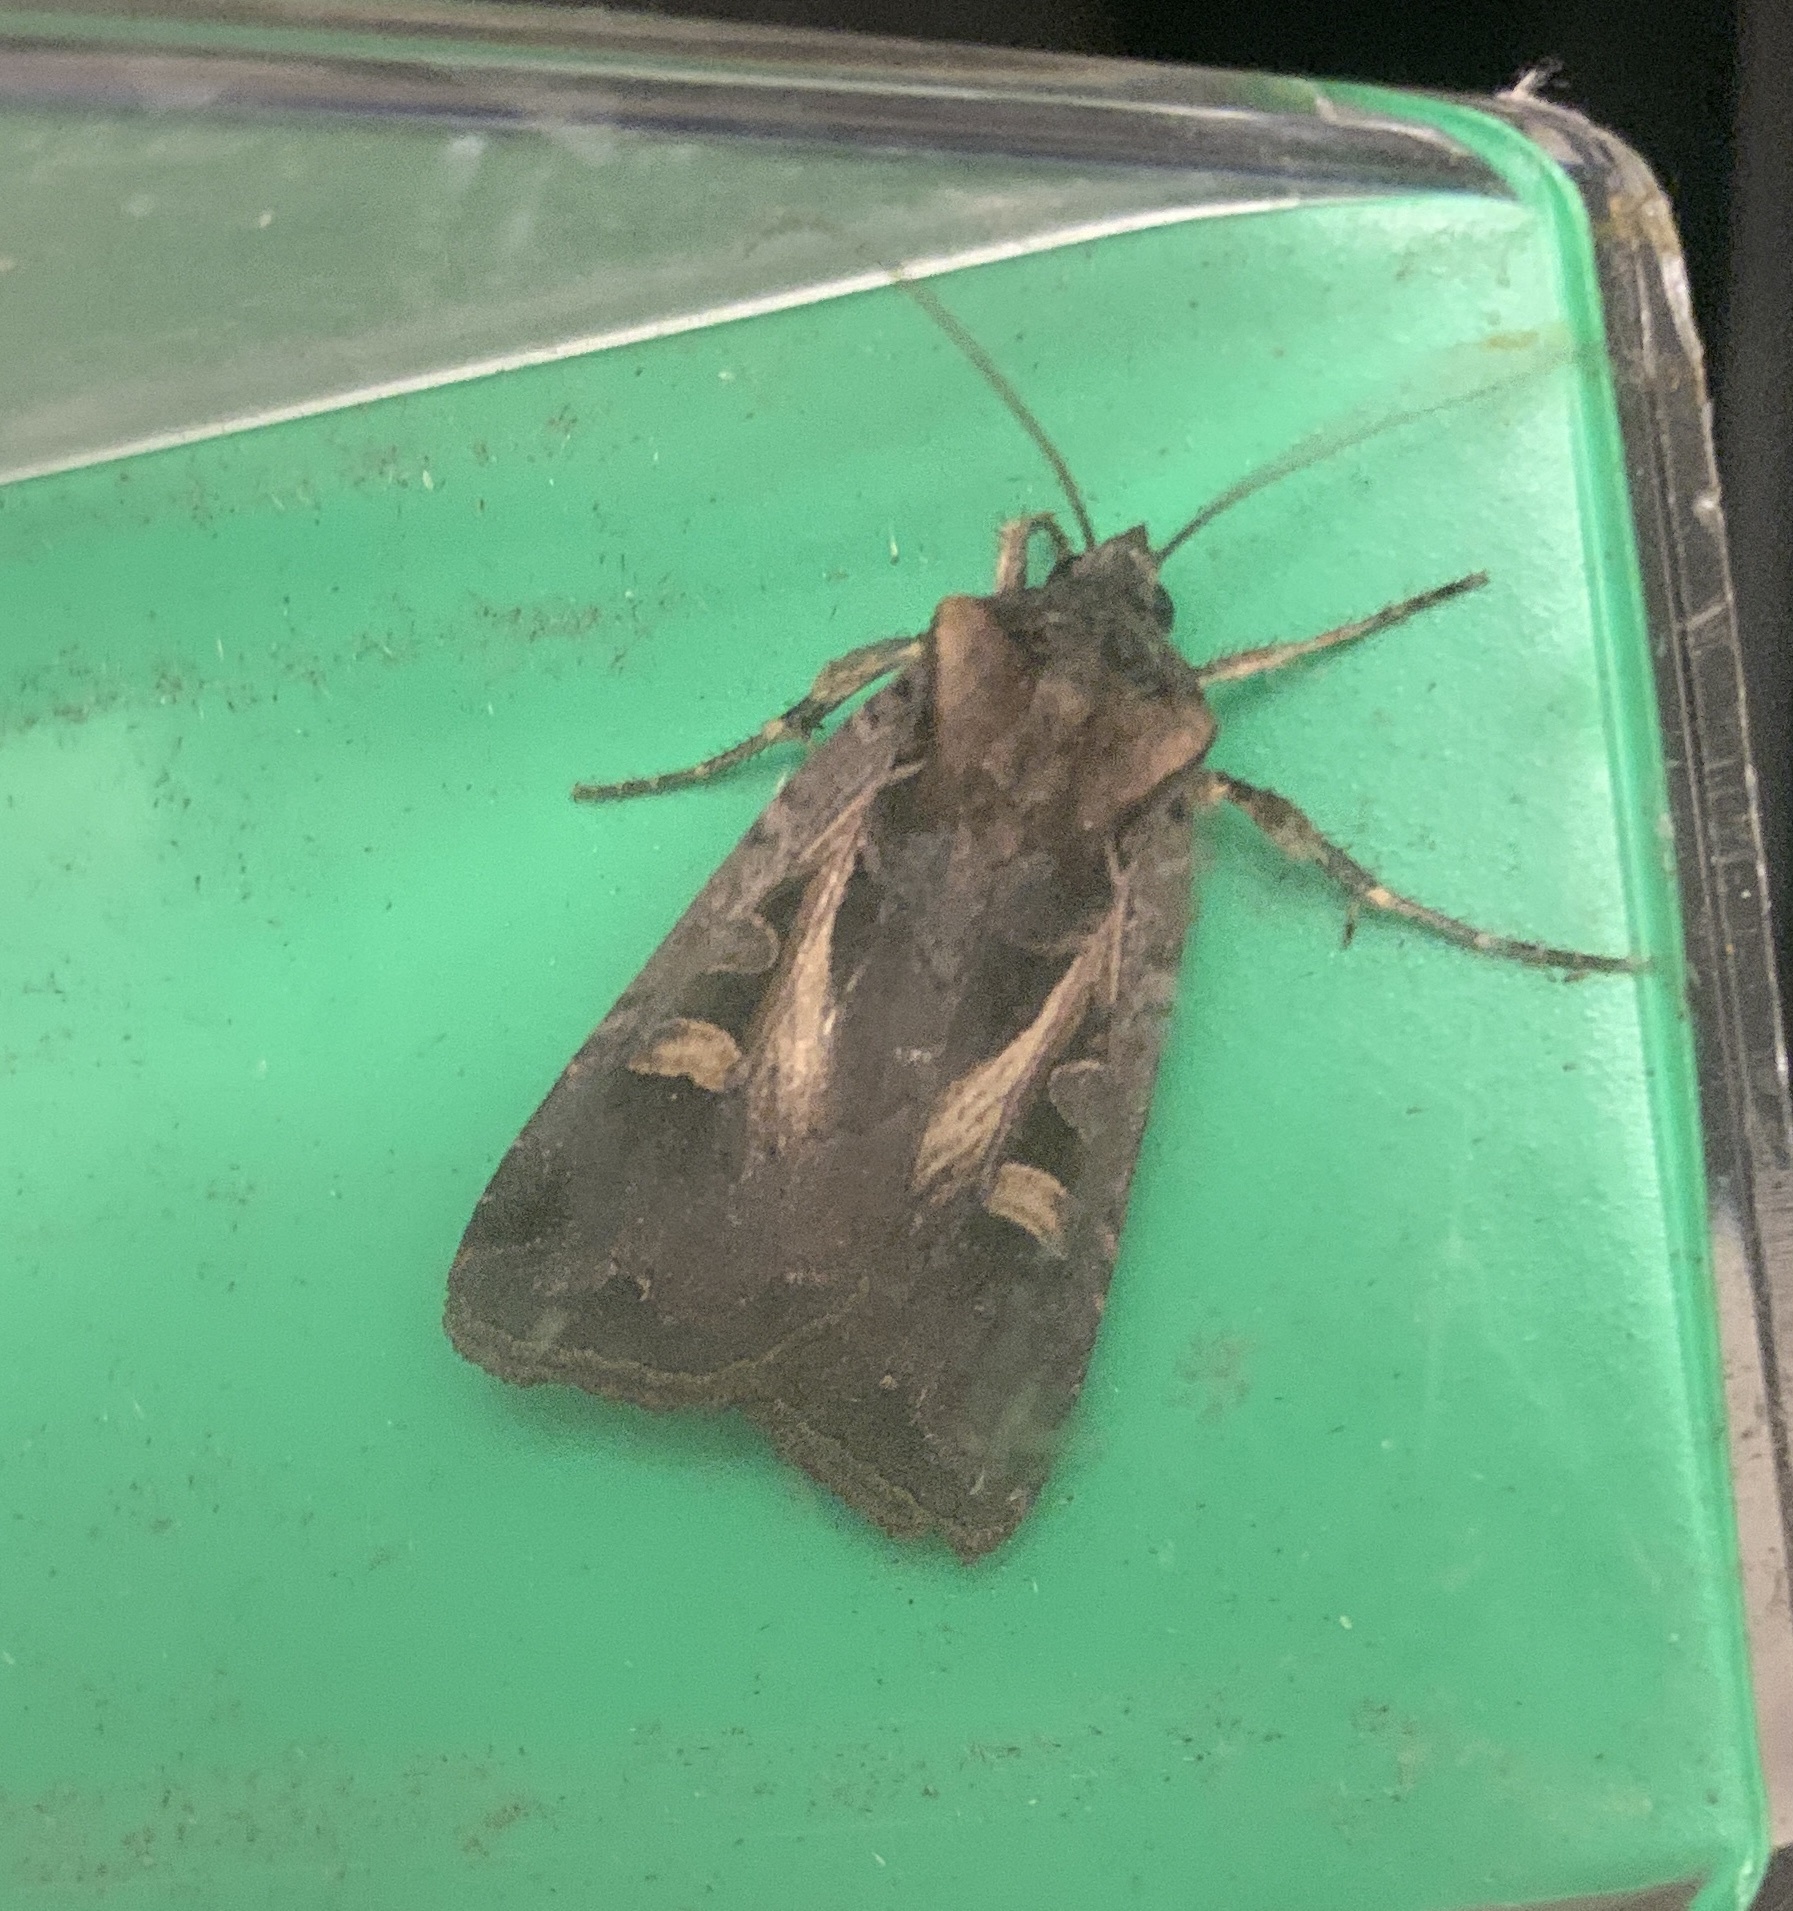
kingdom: Animalia
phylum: Arthropoda
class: Insecta
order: Lepidoptera
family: Noctuidae
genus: Feltia
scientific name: Feltia herilis
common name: Master's dart
